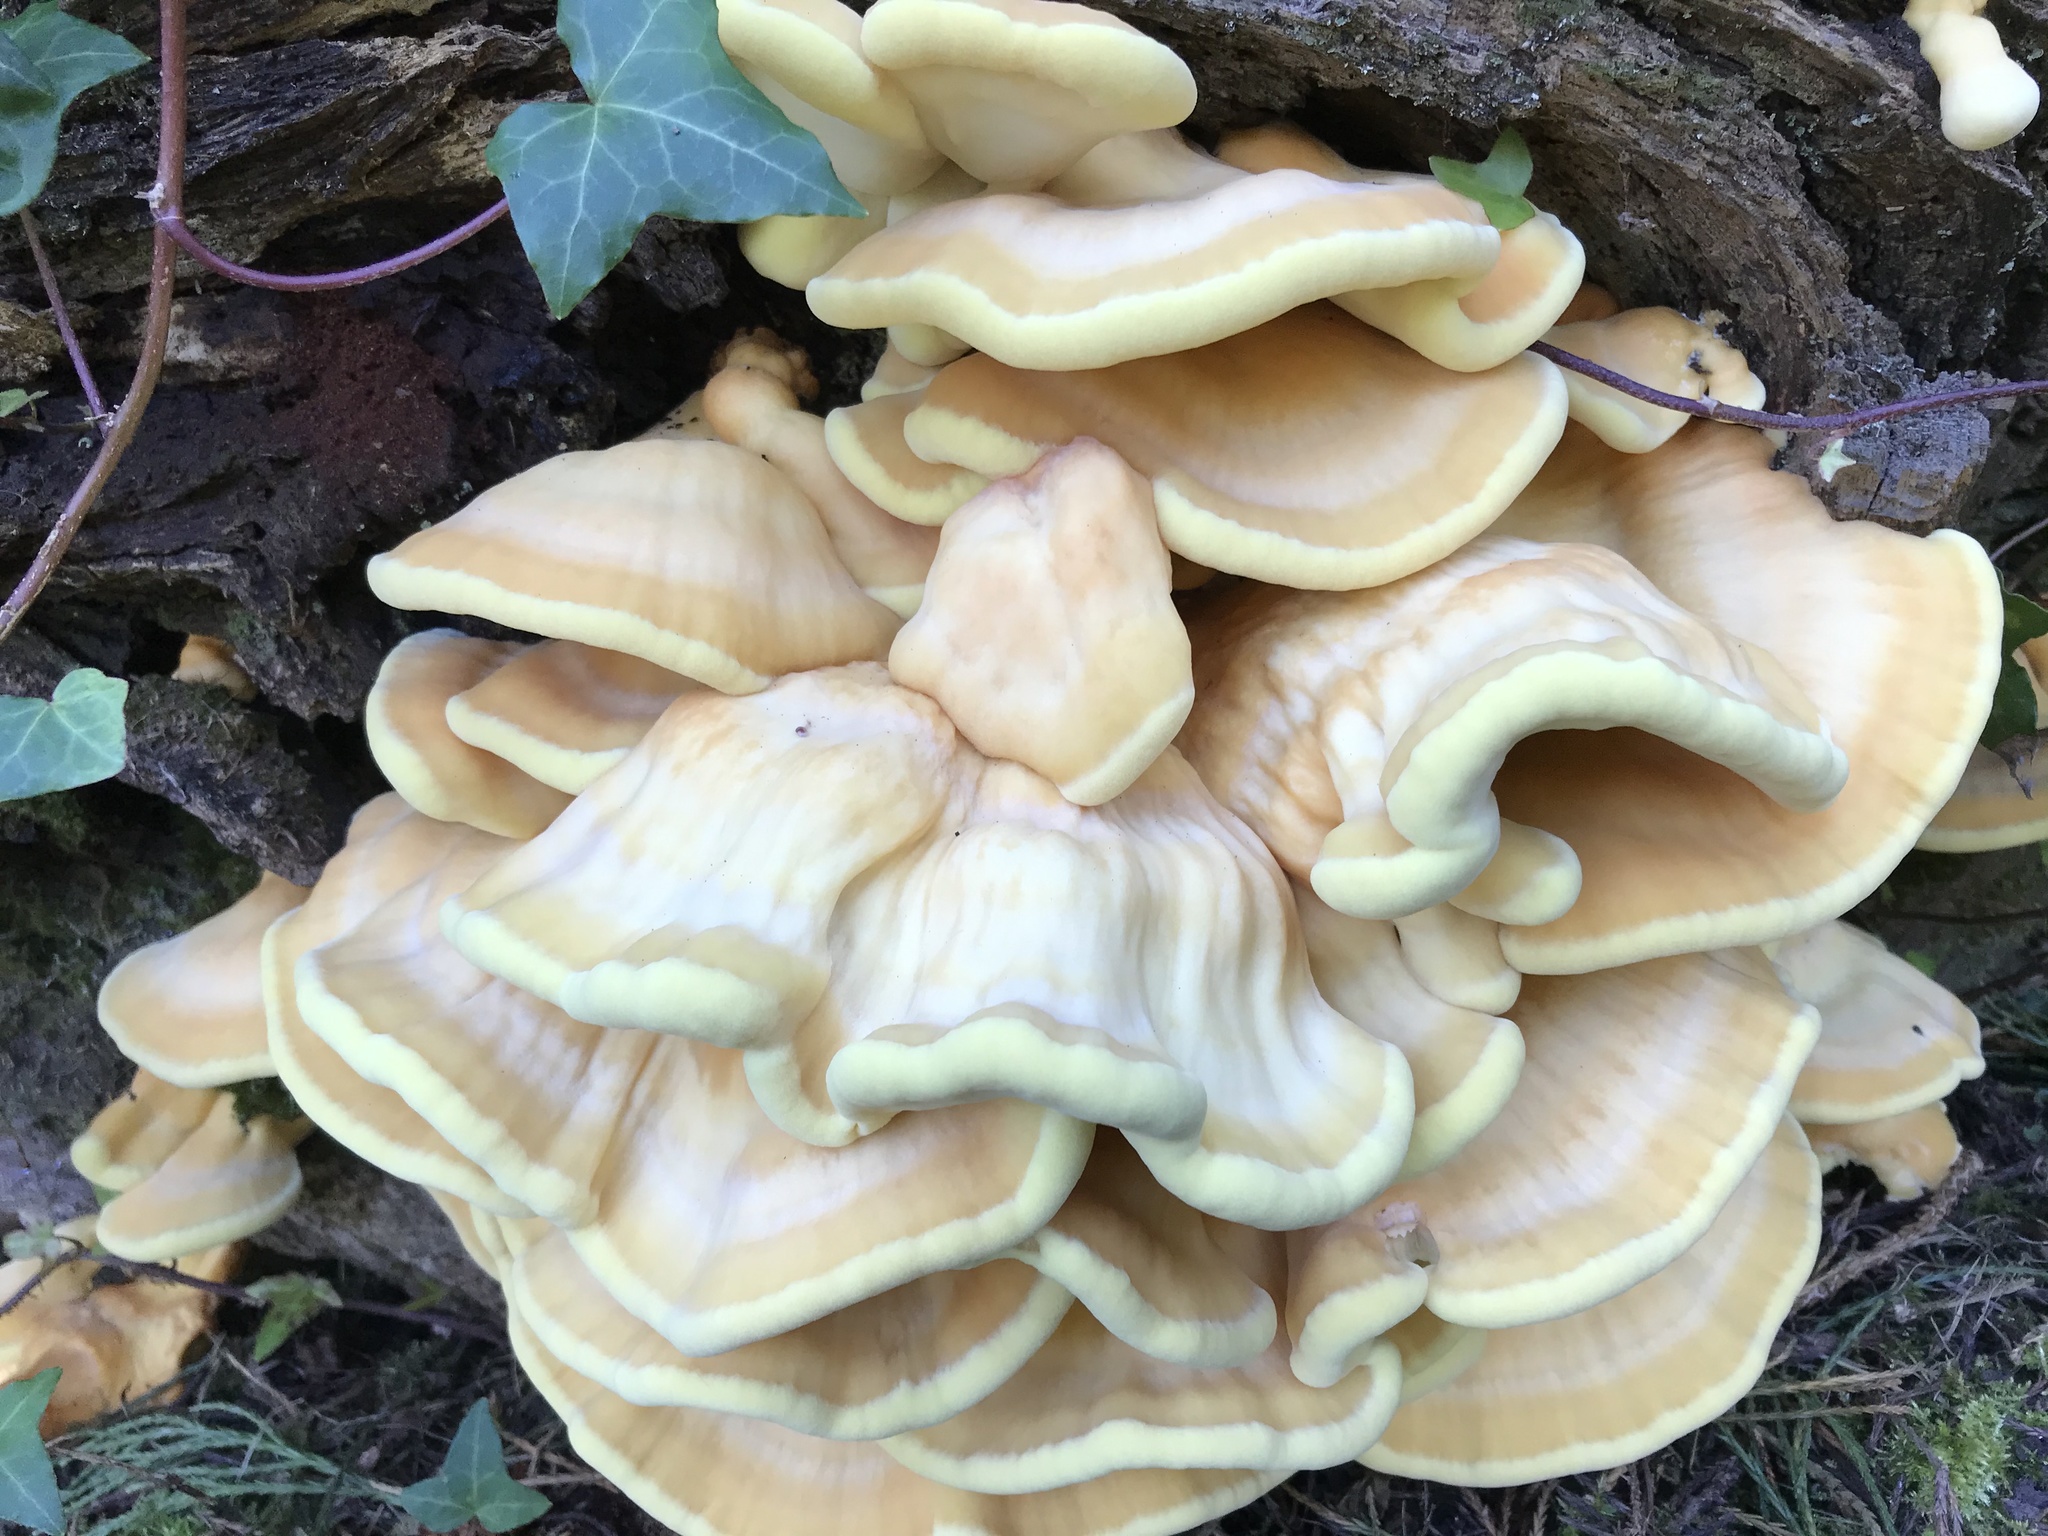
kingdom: Fungi
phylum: Basidiomycota
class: Agaricomycetes
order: Polyporales
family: Laetiporaceae
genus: Laetiporus
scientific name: Laetiporus sulphureus
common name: Chicken of the woods
